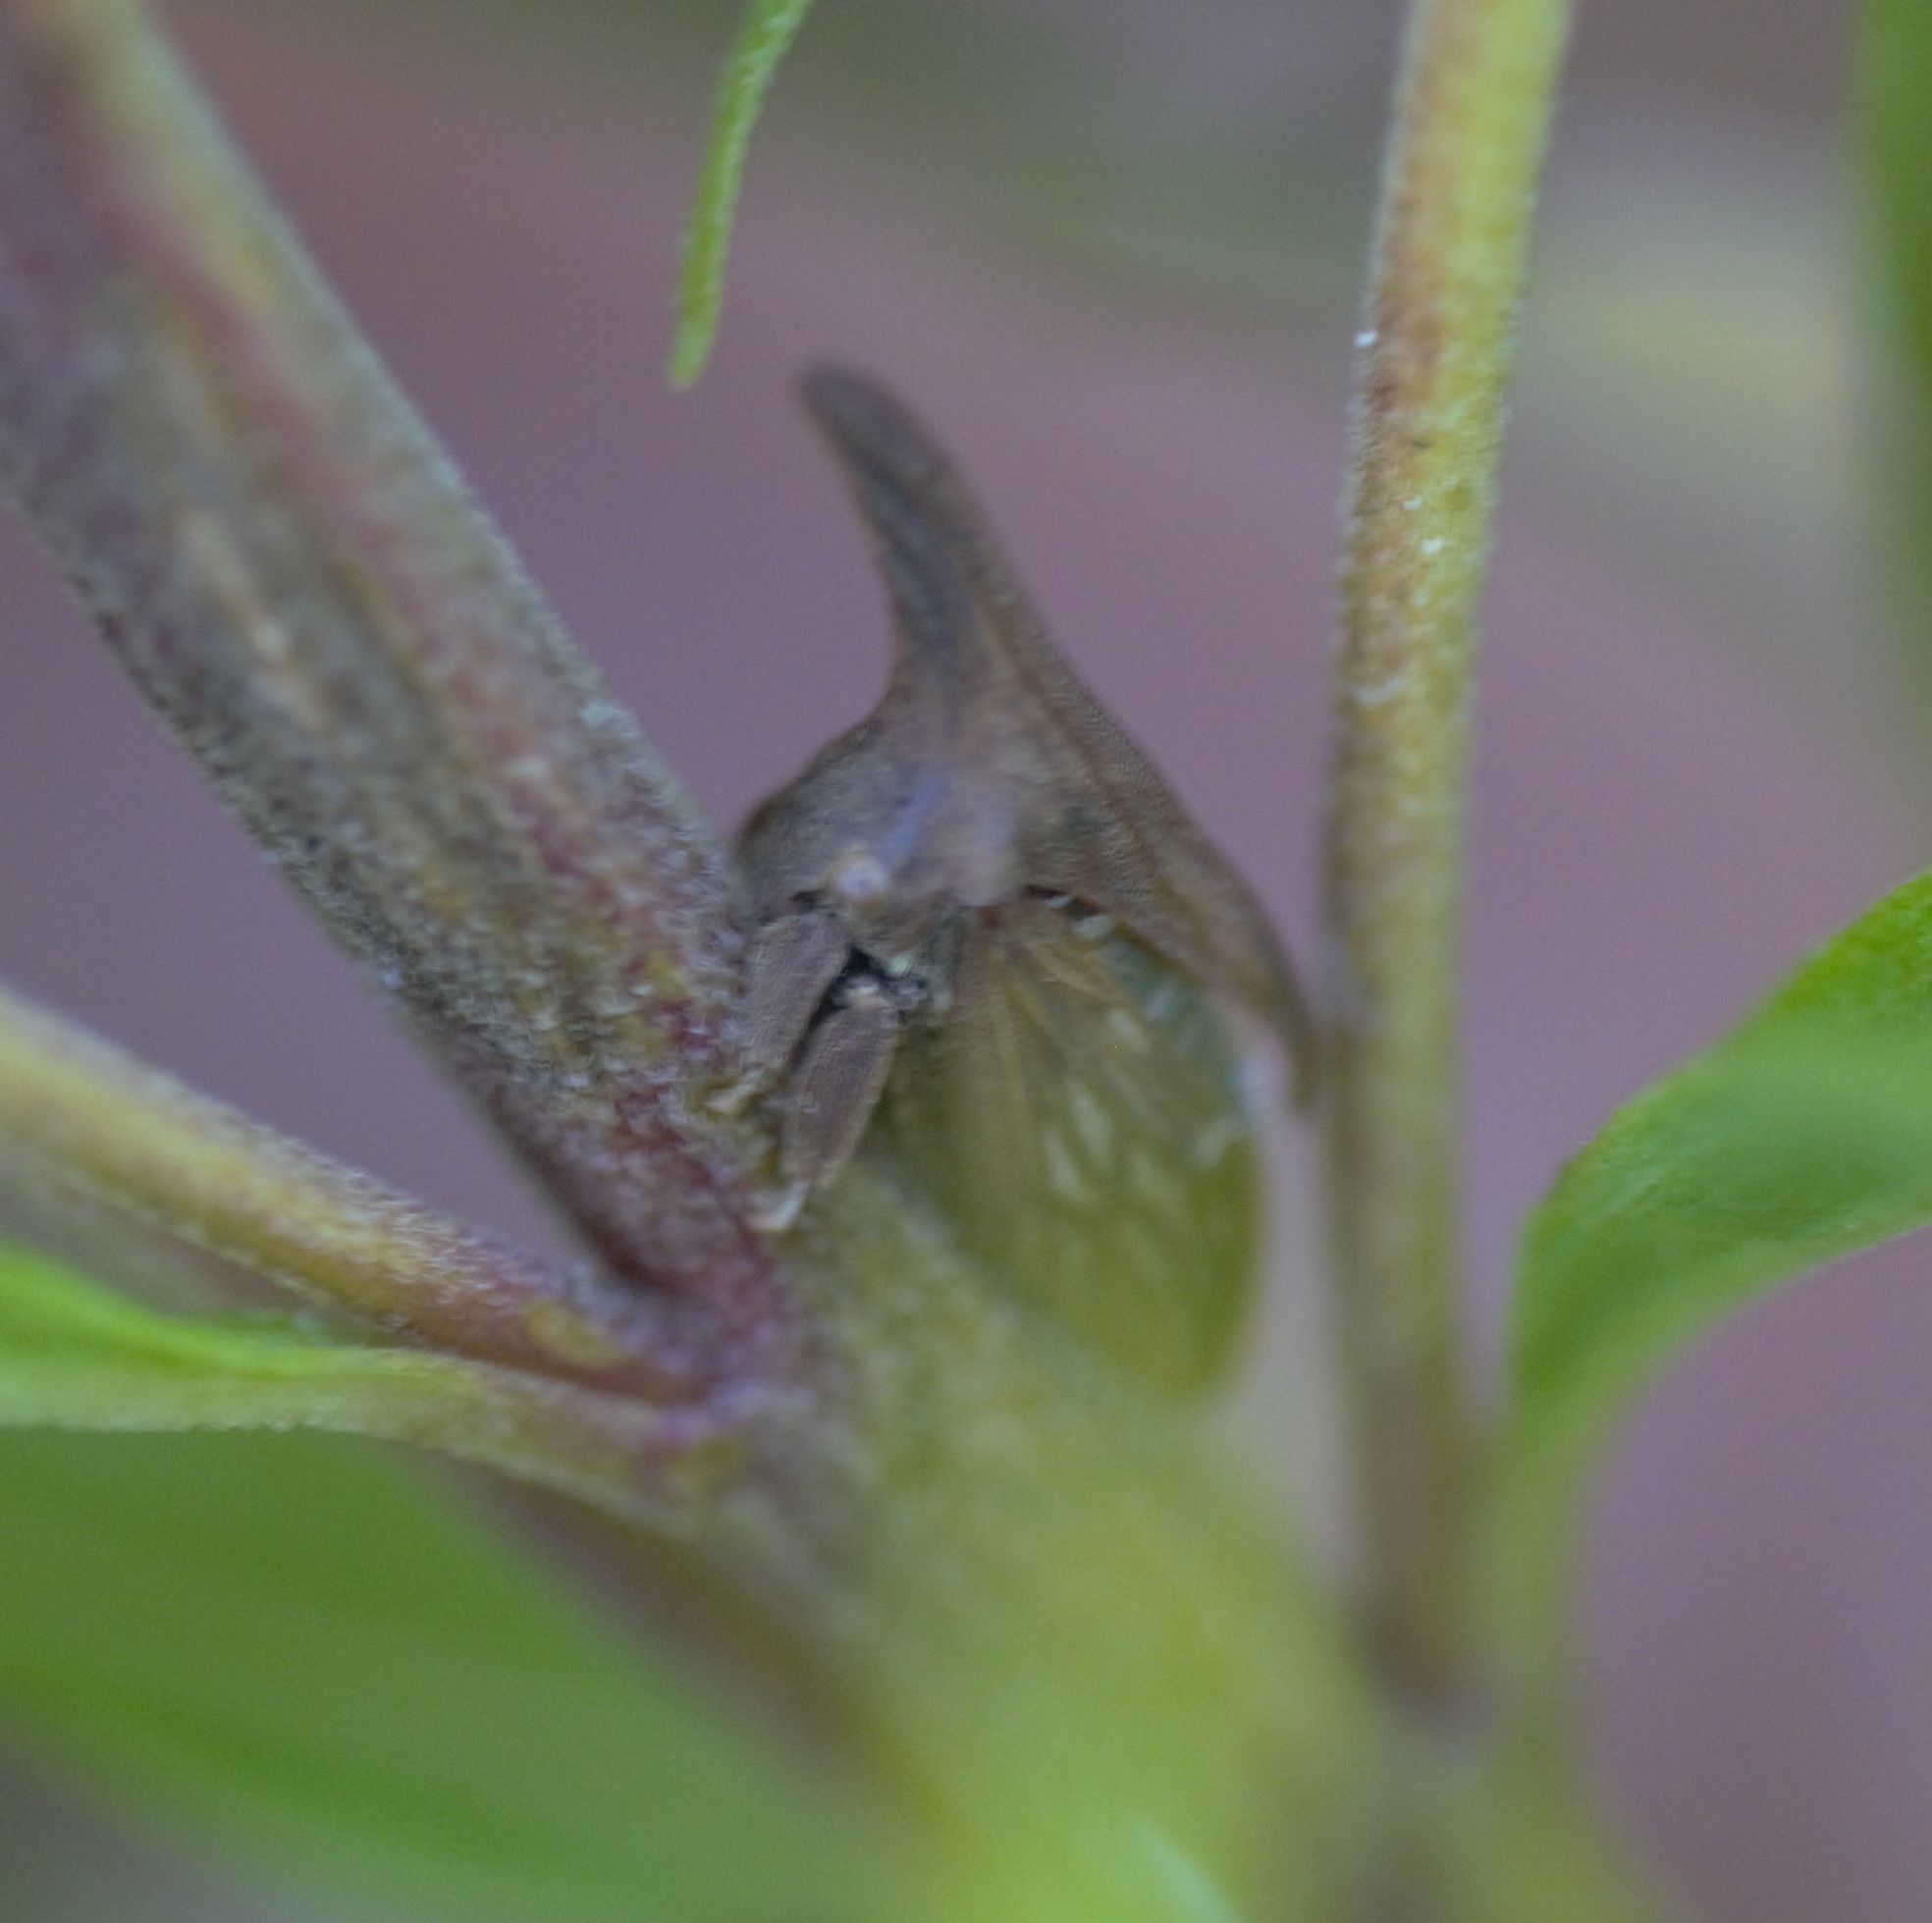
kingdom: Animalia
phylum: Arthropoda
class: Insecta
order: Hemiptera
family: Membracidae
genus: Enchenopa
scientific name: Enchenopa latipes
